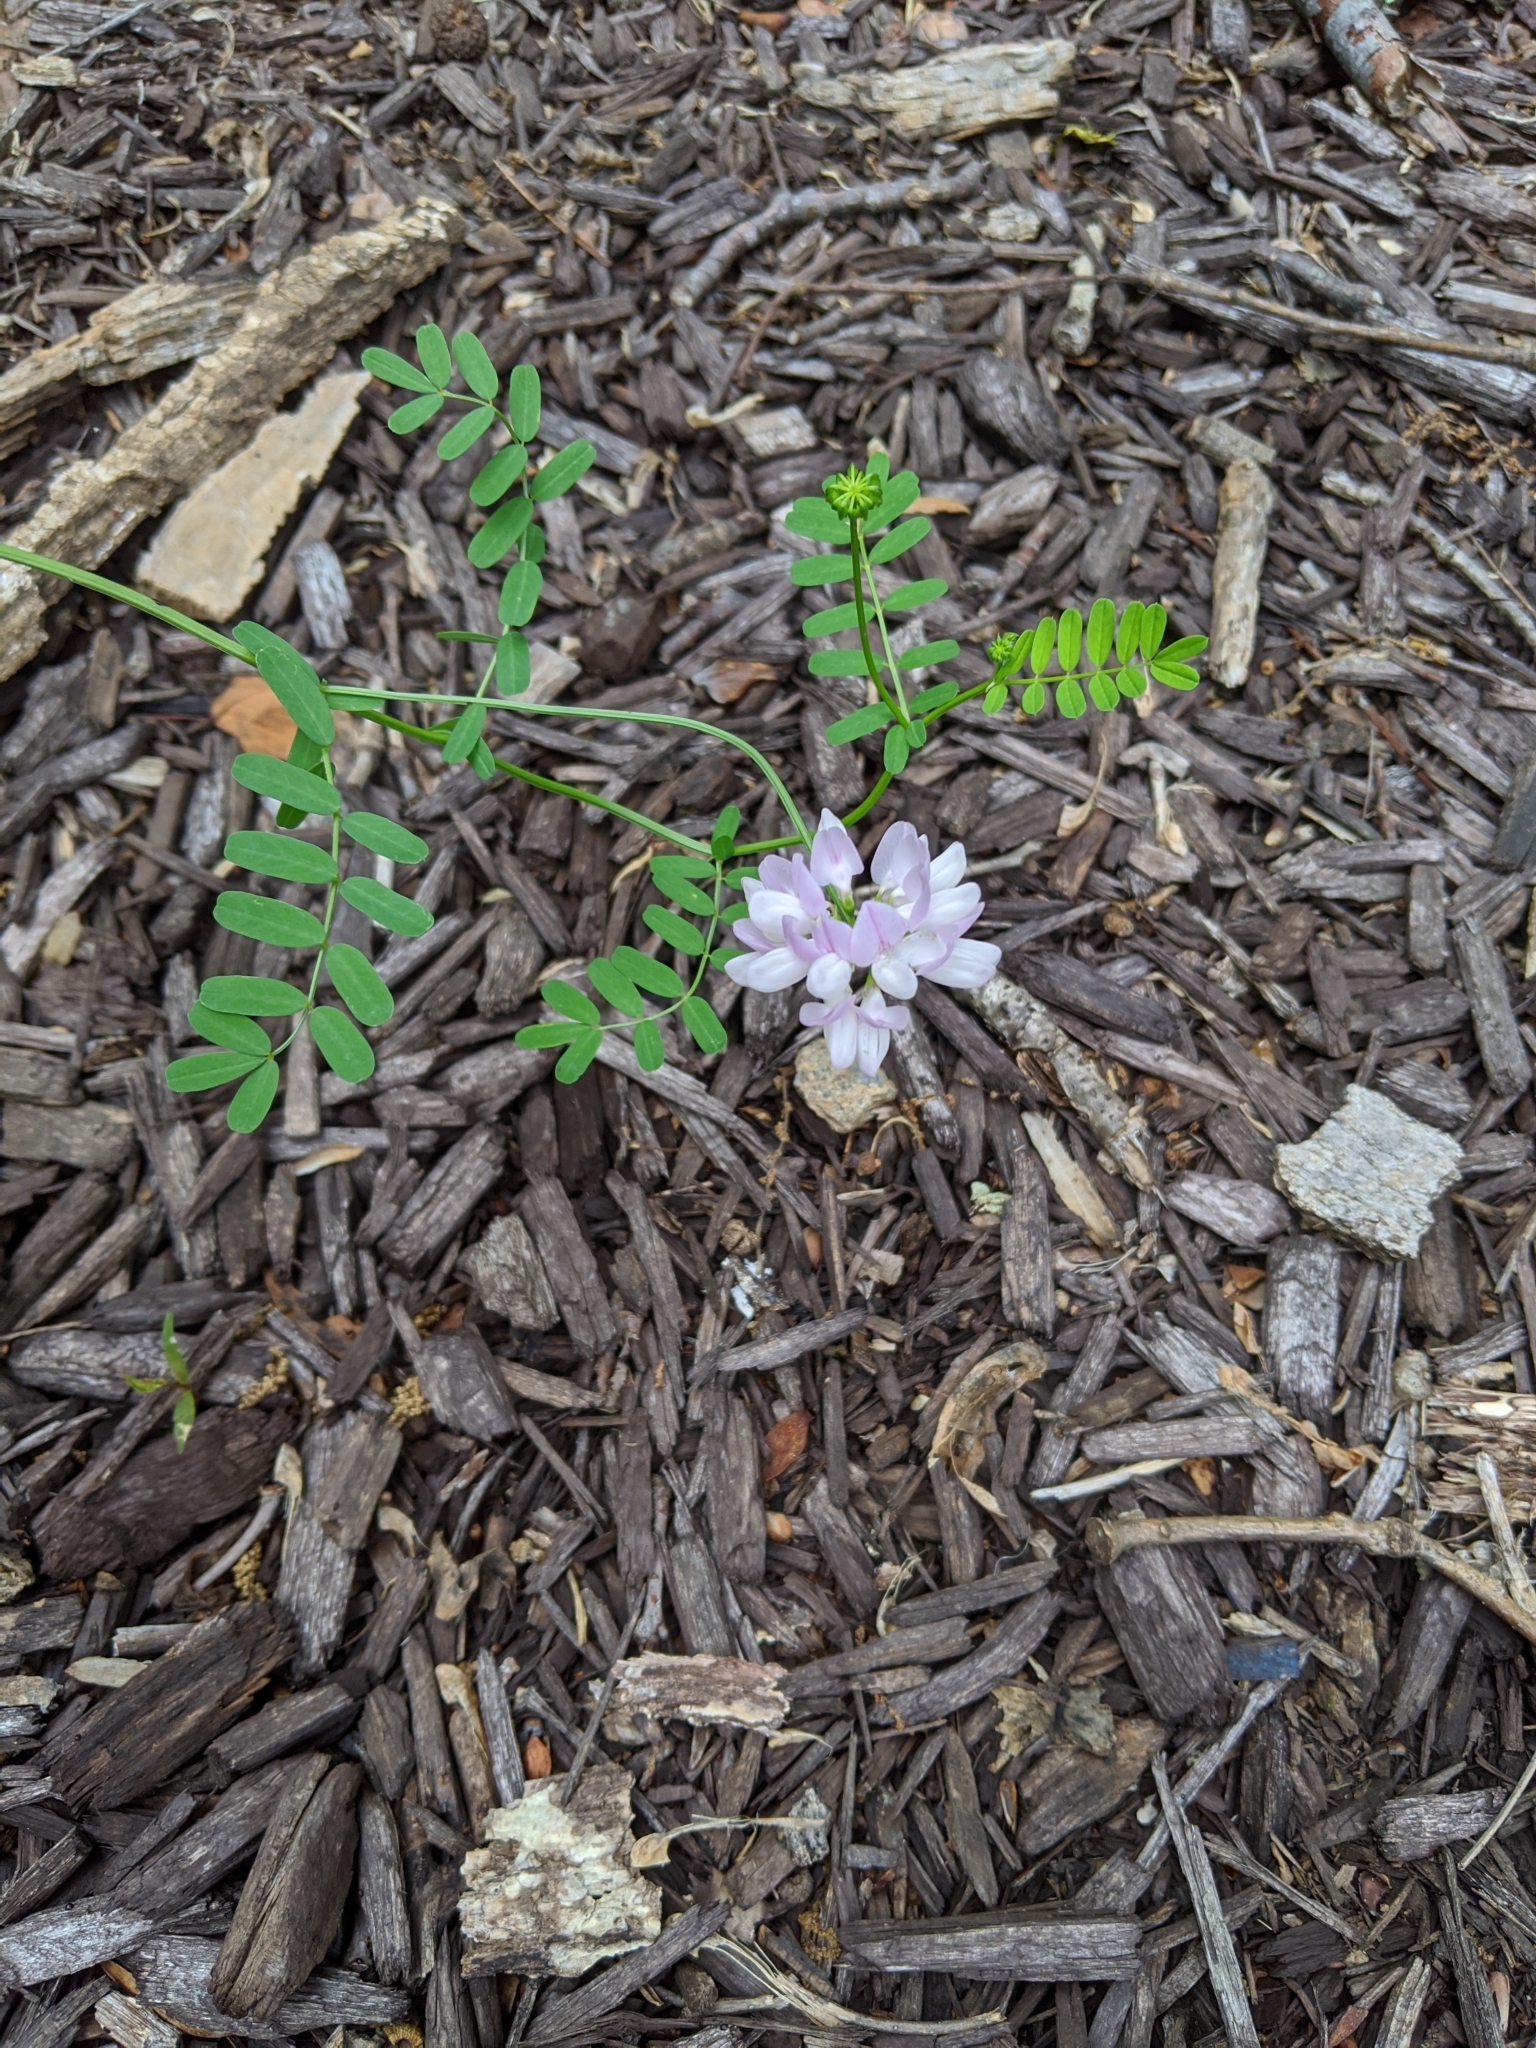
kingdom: Plantae
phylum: Tracheophyta
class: Magnoliopsida
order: Fabales
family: Fabaceae
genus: Coronilla
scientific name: Coronilla varia
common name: Crownvetch
